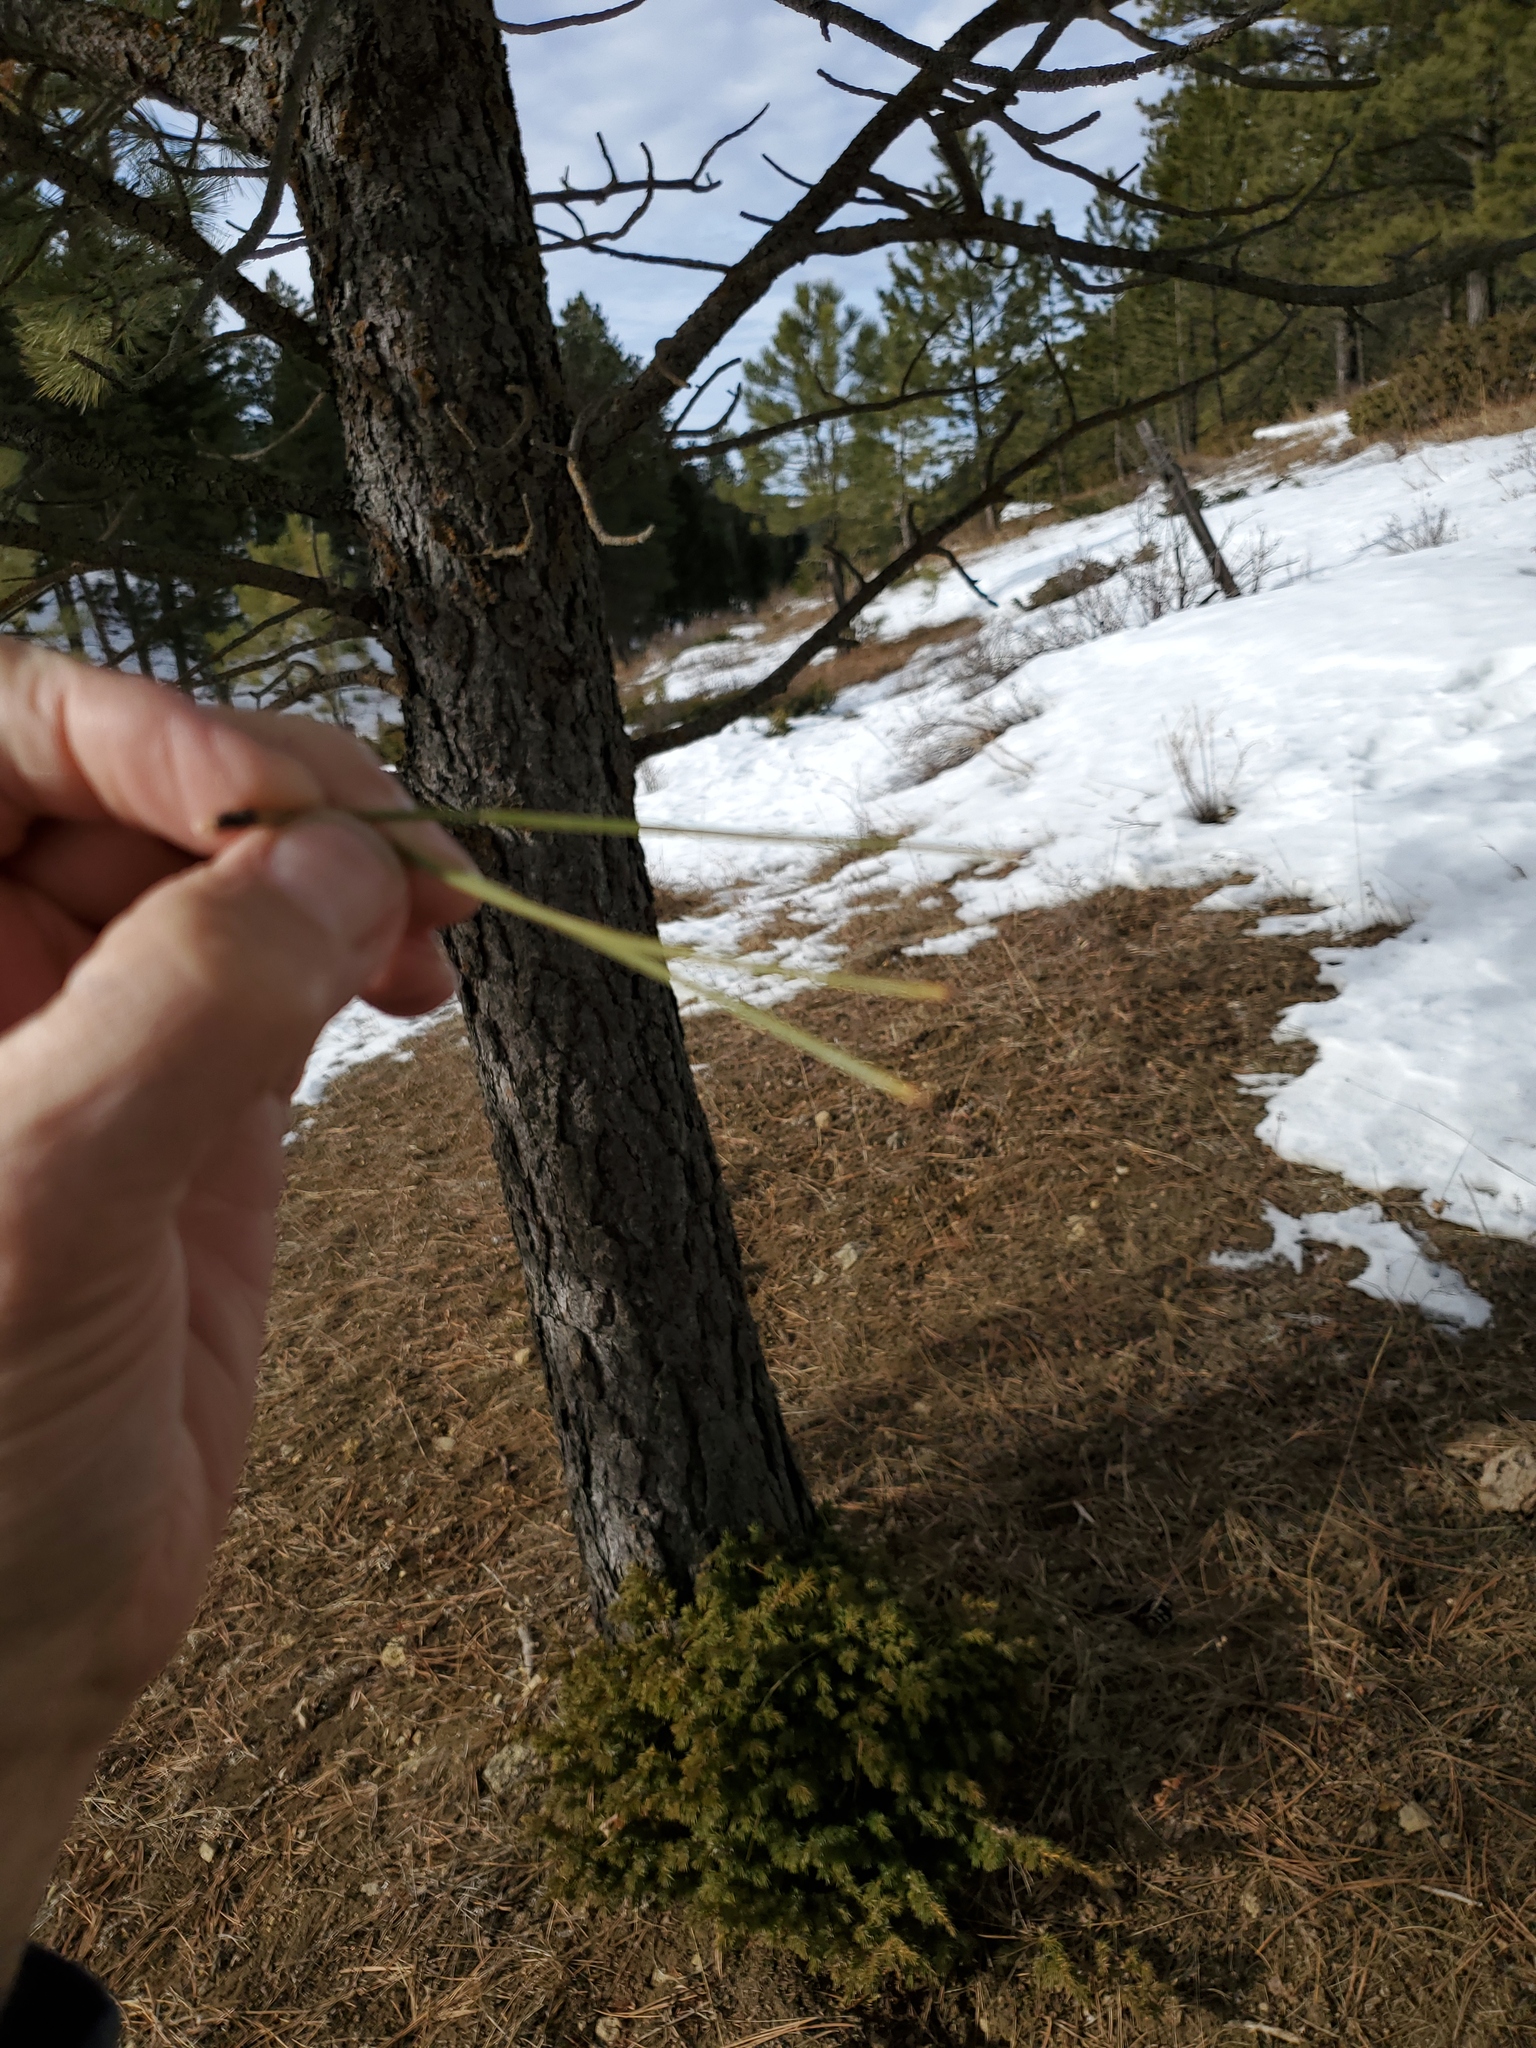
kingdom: Plantae
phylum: Tracheophyta
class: Pinopsida
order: Pinales
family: Pinaceae
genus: Pinus
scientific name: Pinus ponderosa
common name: Western yellow-pine
